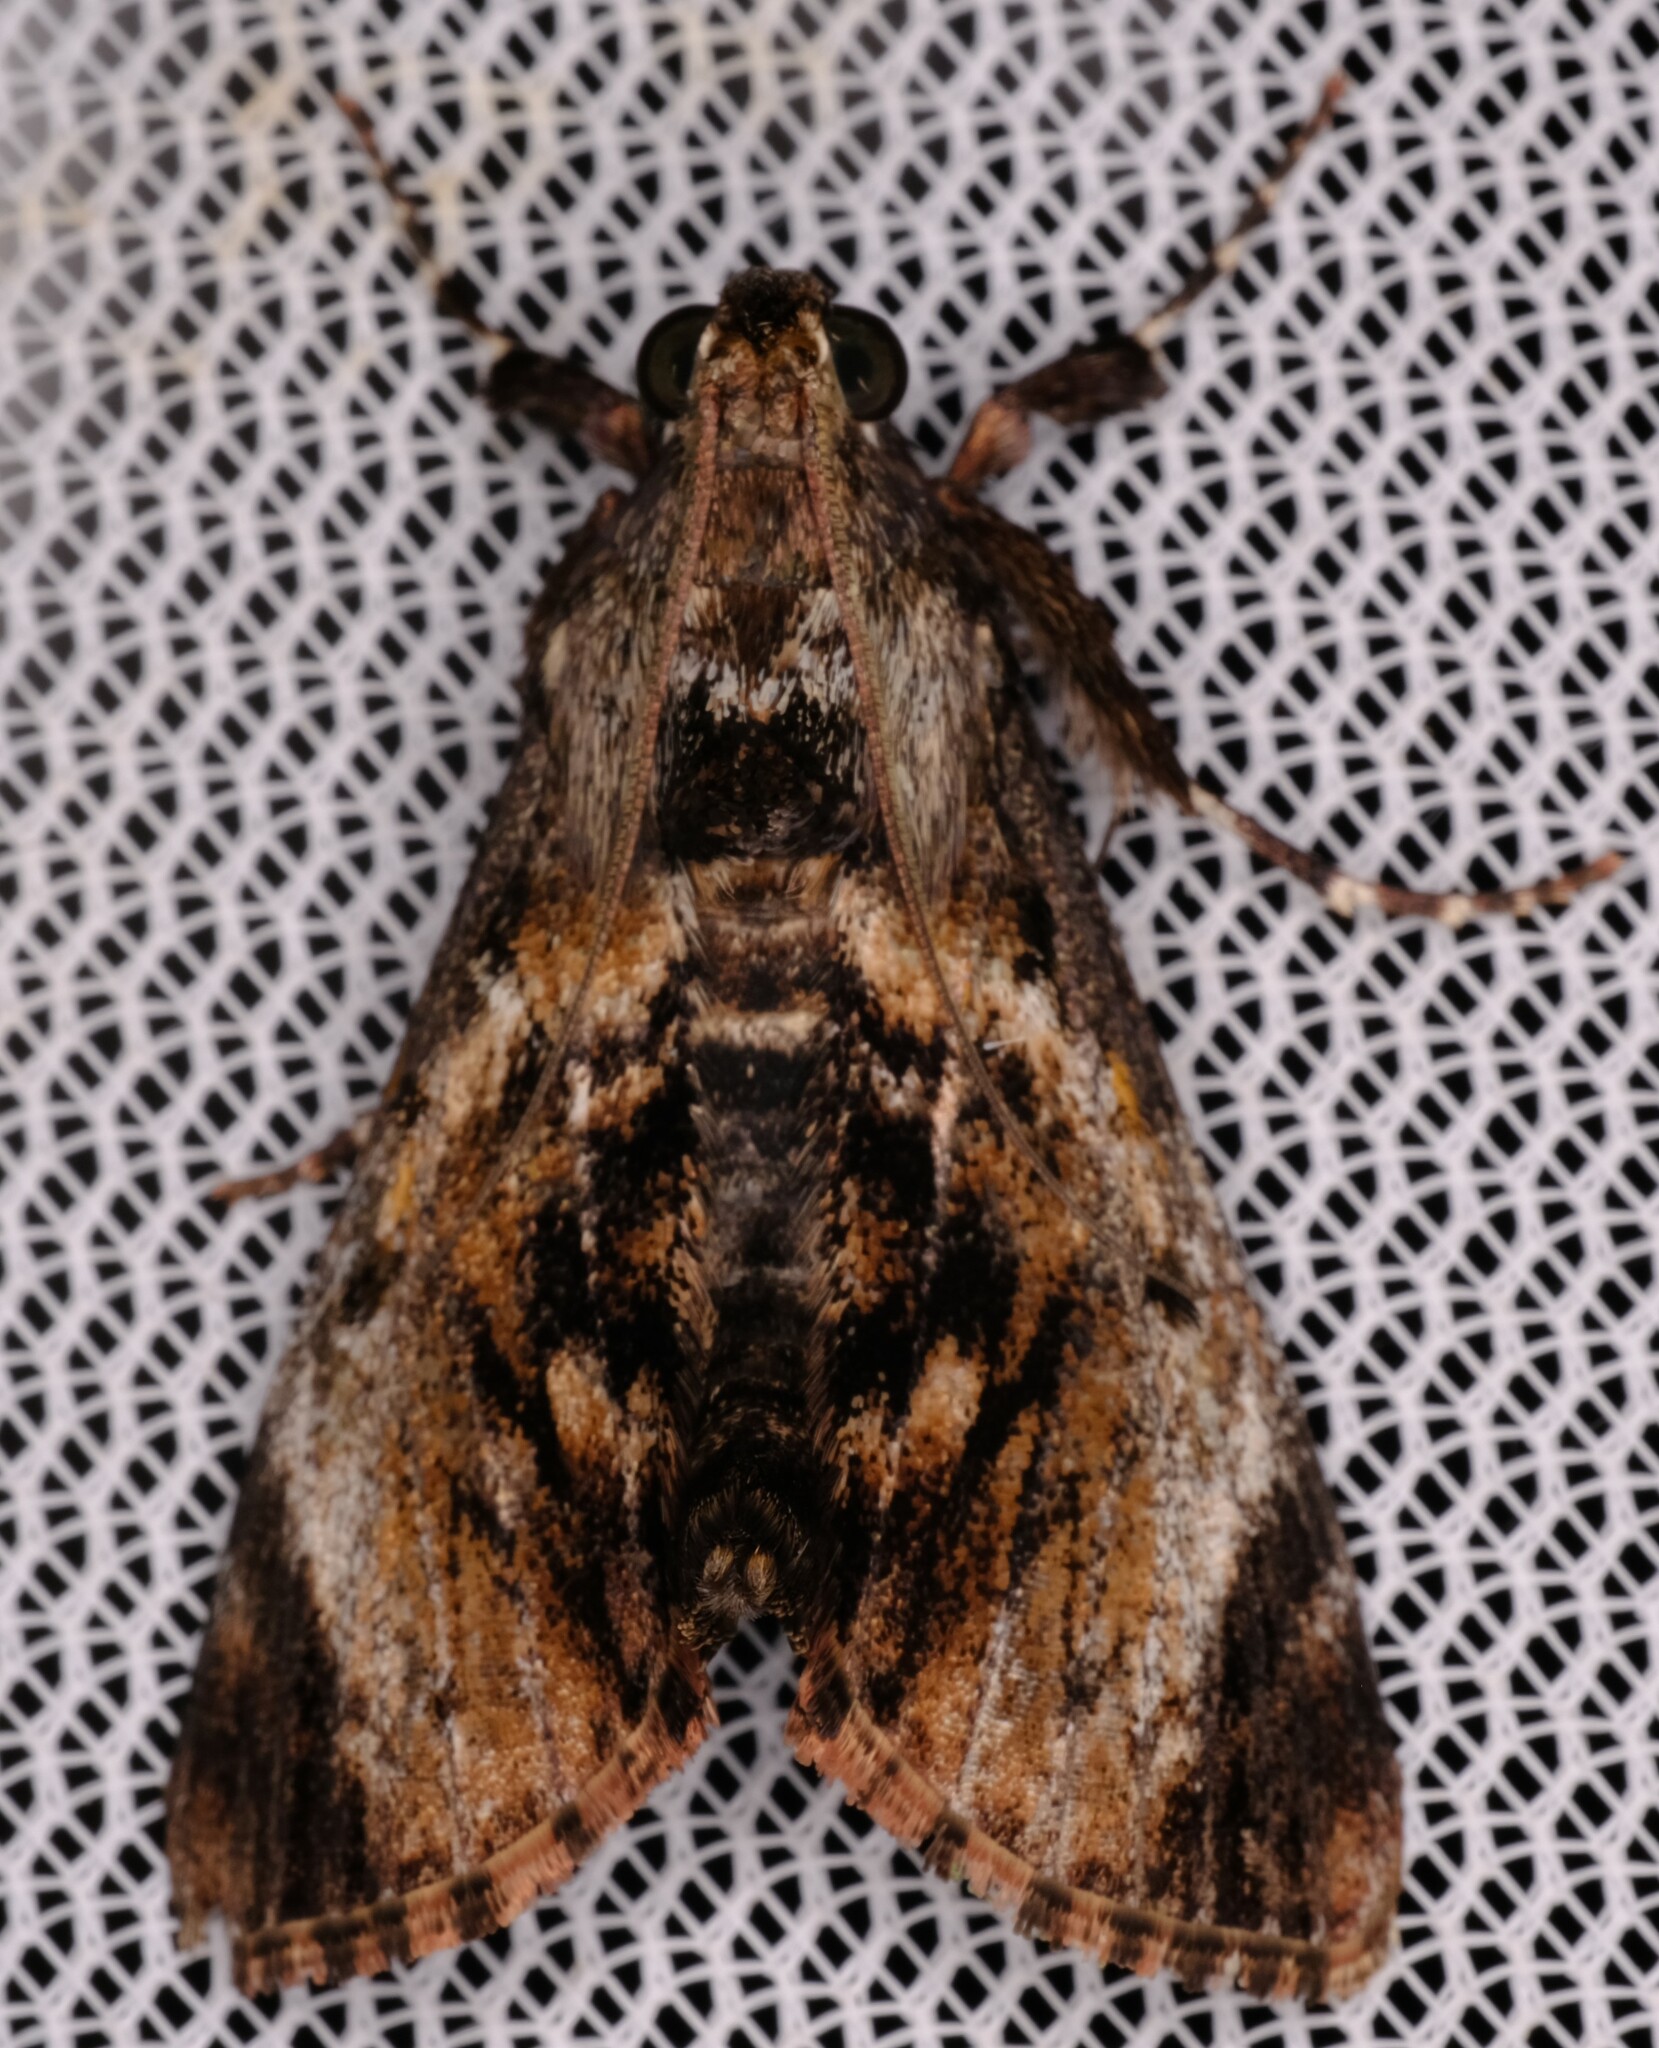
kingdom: Animalia
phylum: Arthropoda
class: Insecta
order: Lepidoptera
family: Pyralidae
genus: Salma
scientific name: Salma pyrastis
